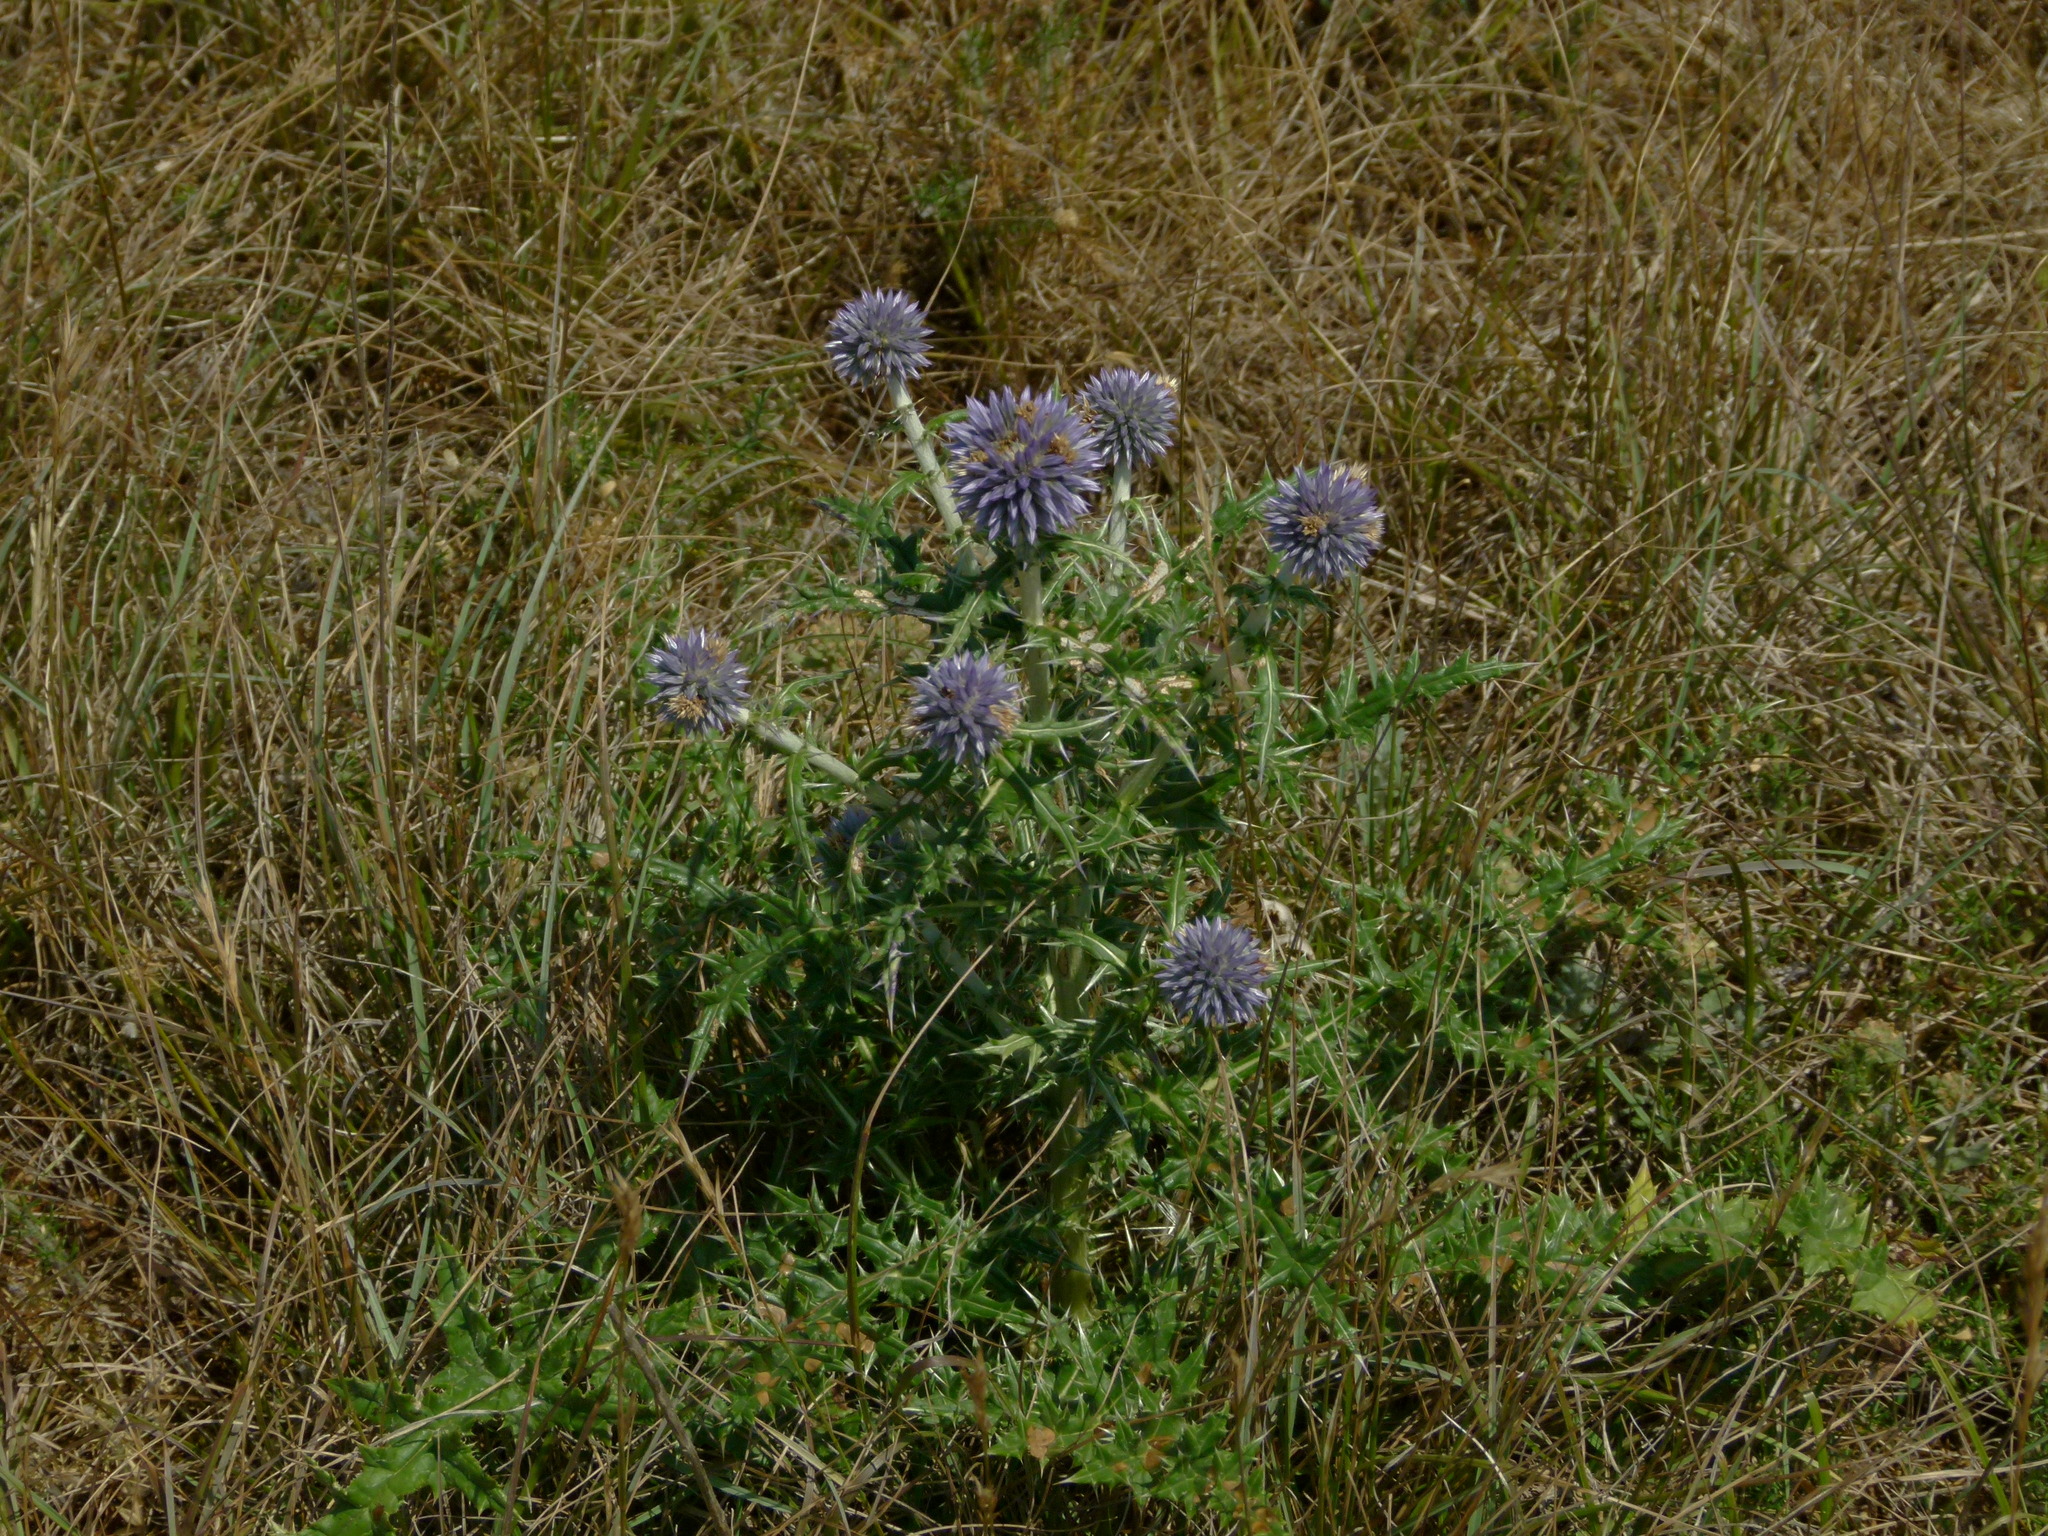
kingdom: Plantae
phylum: Tracheophyta
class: Magnoliopsida
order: Asterales
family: Asteraceae
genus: Echinops
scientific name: Echinops ritro
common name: Globe thistle
